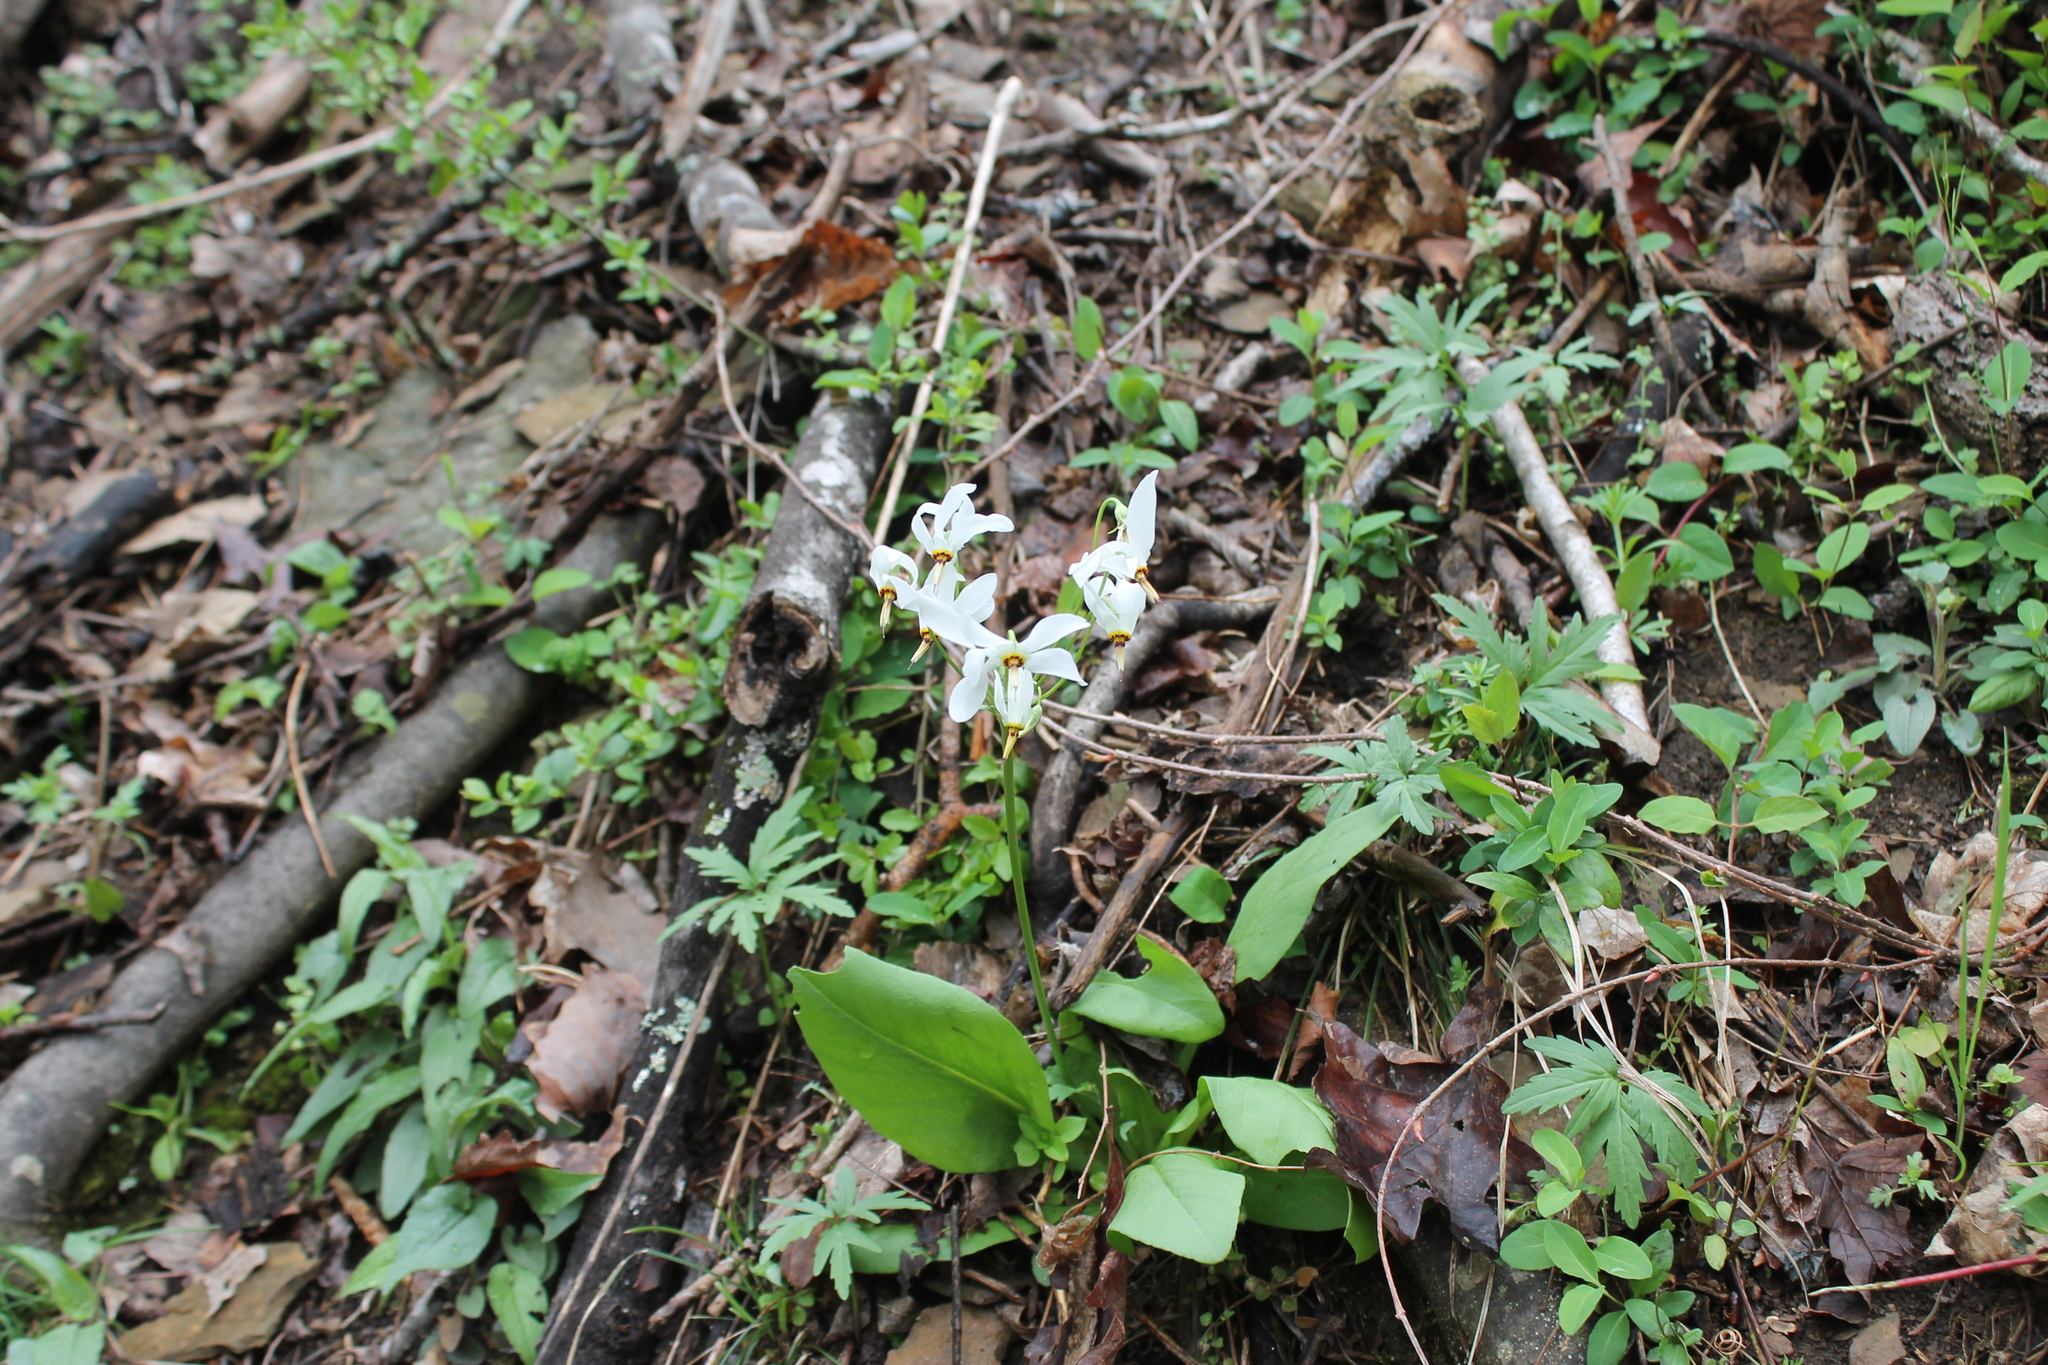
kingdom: Plantae
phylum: Tracheophyta
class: Magnoliopsida
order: Ericales
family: Primulaceae
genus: Dodecatheon
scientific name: Dodecatheon meadia
